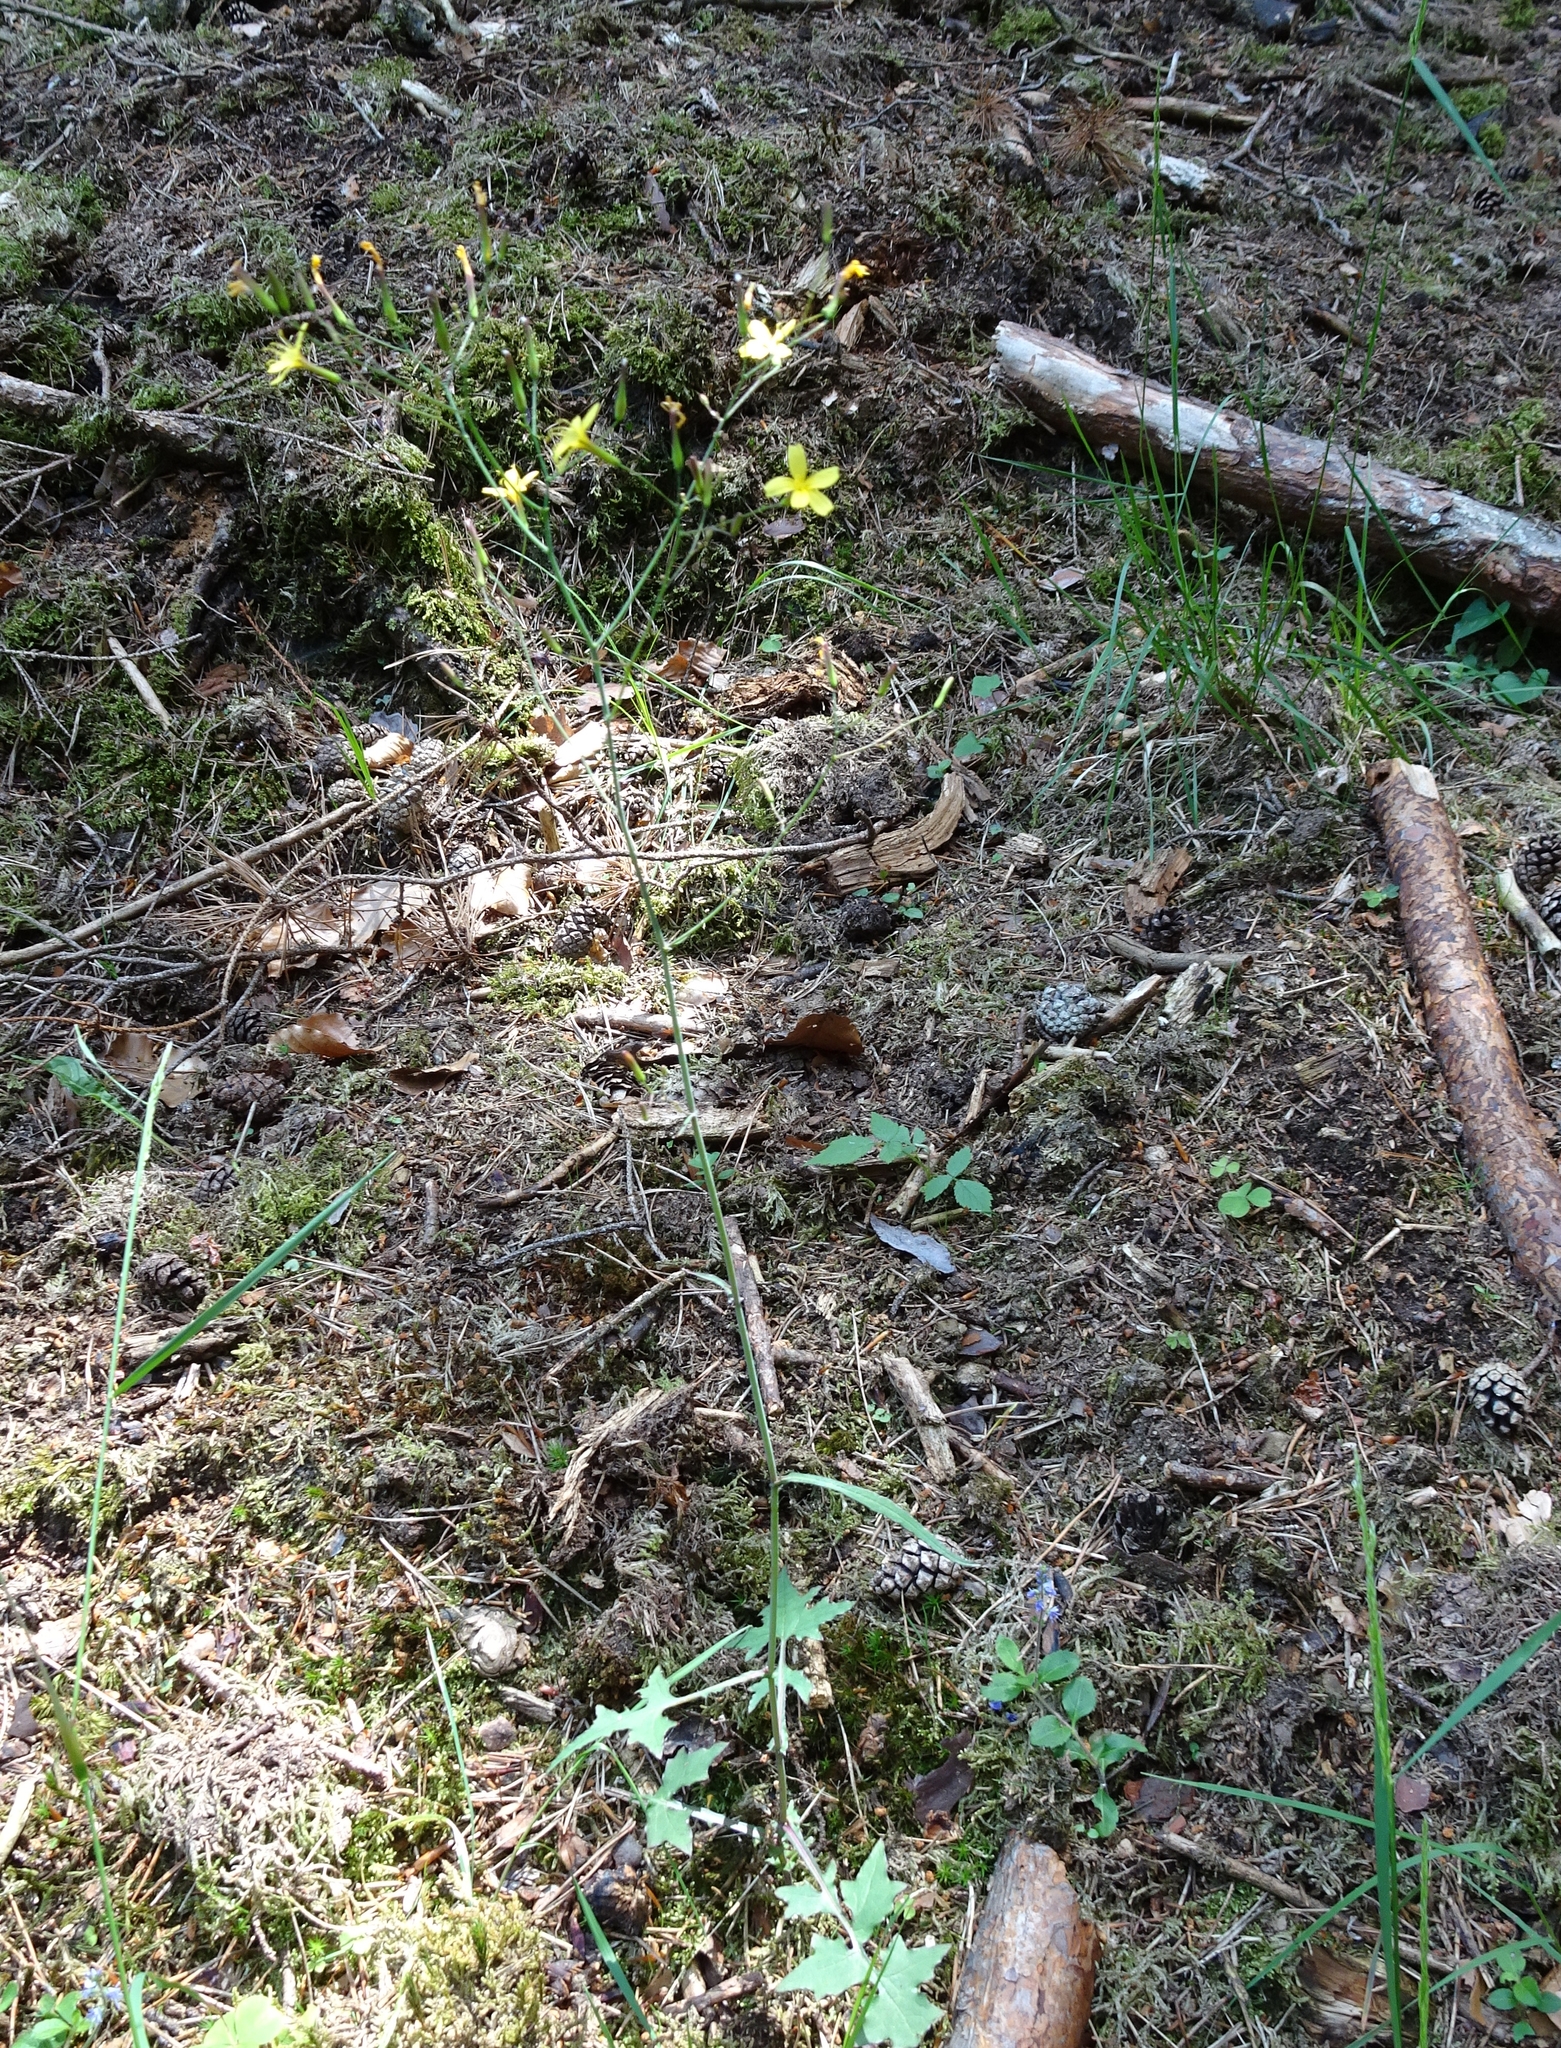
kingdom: Plantae
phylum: Tracheophyta
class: Magnoliopsida
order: Asterales
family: Asteraceae
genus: Mycelis
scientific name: Mycelis muralis
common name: Wall lettuce
